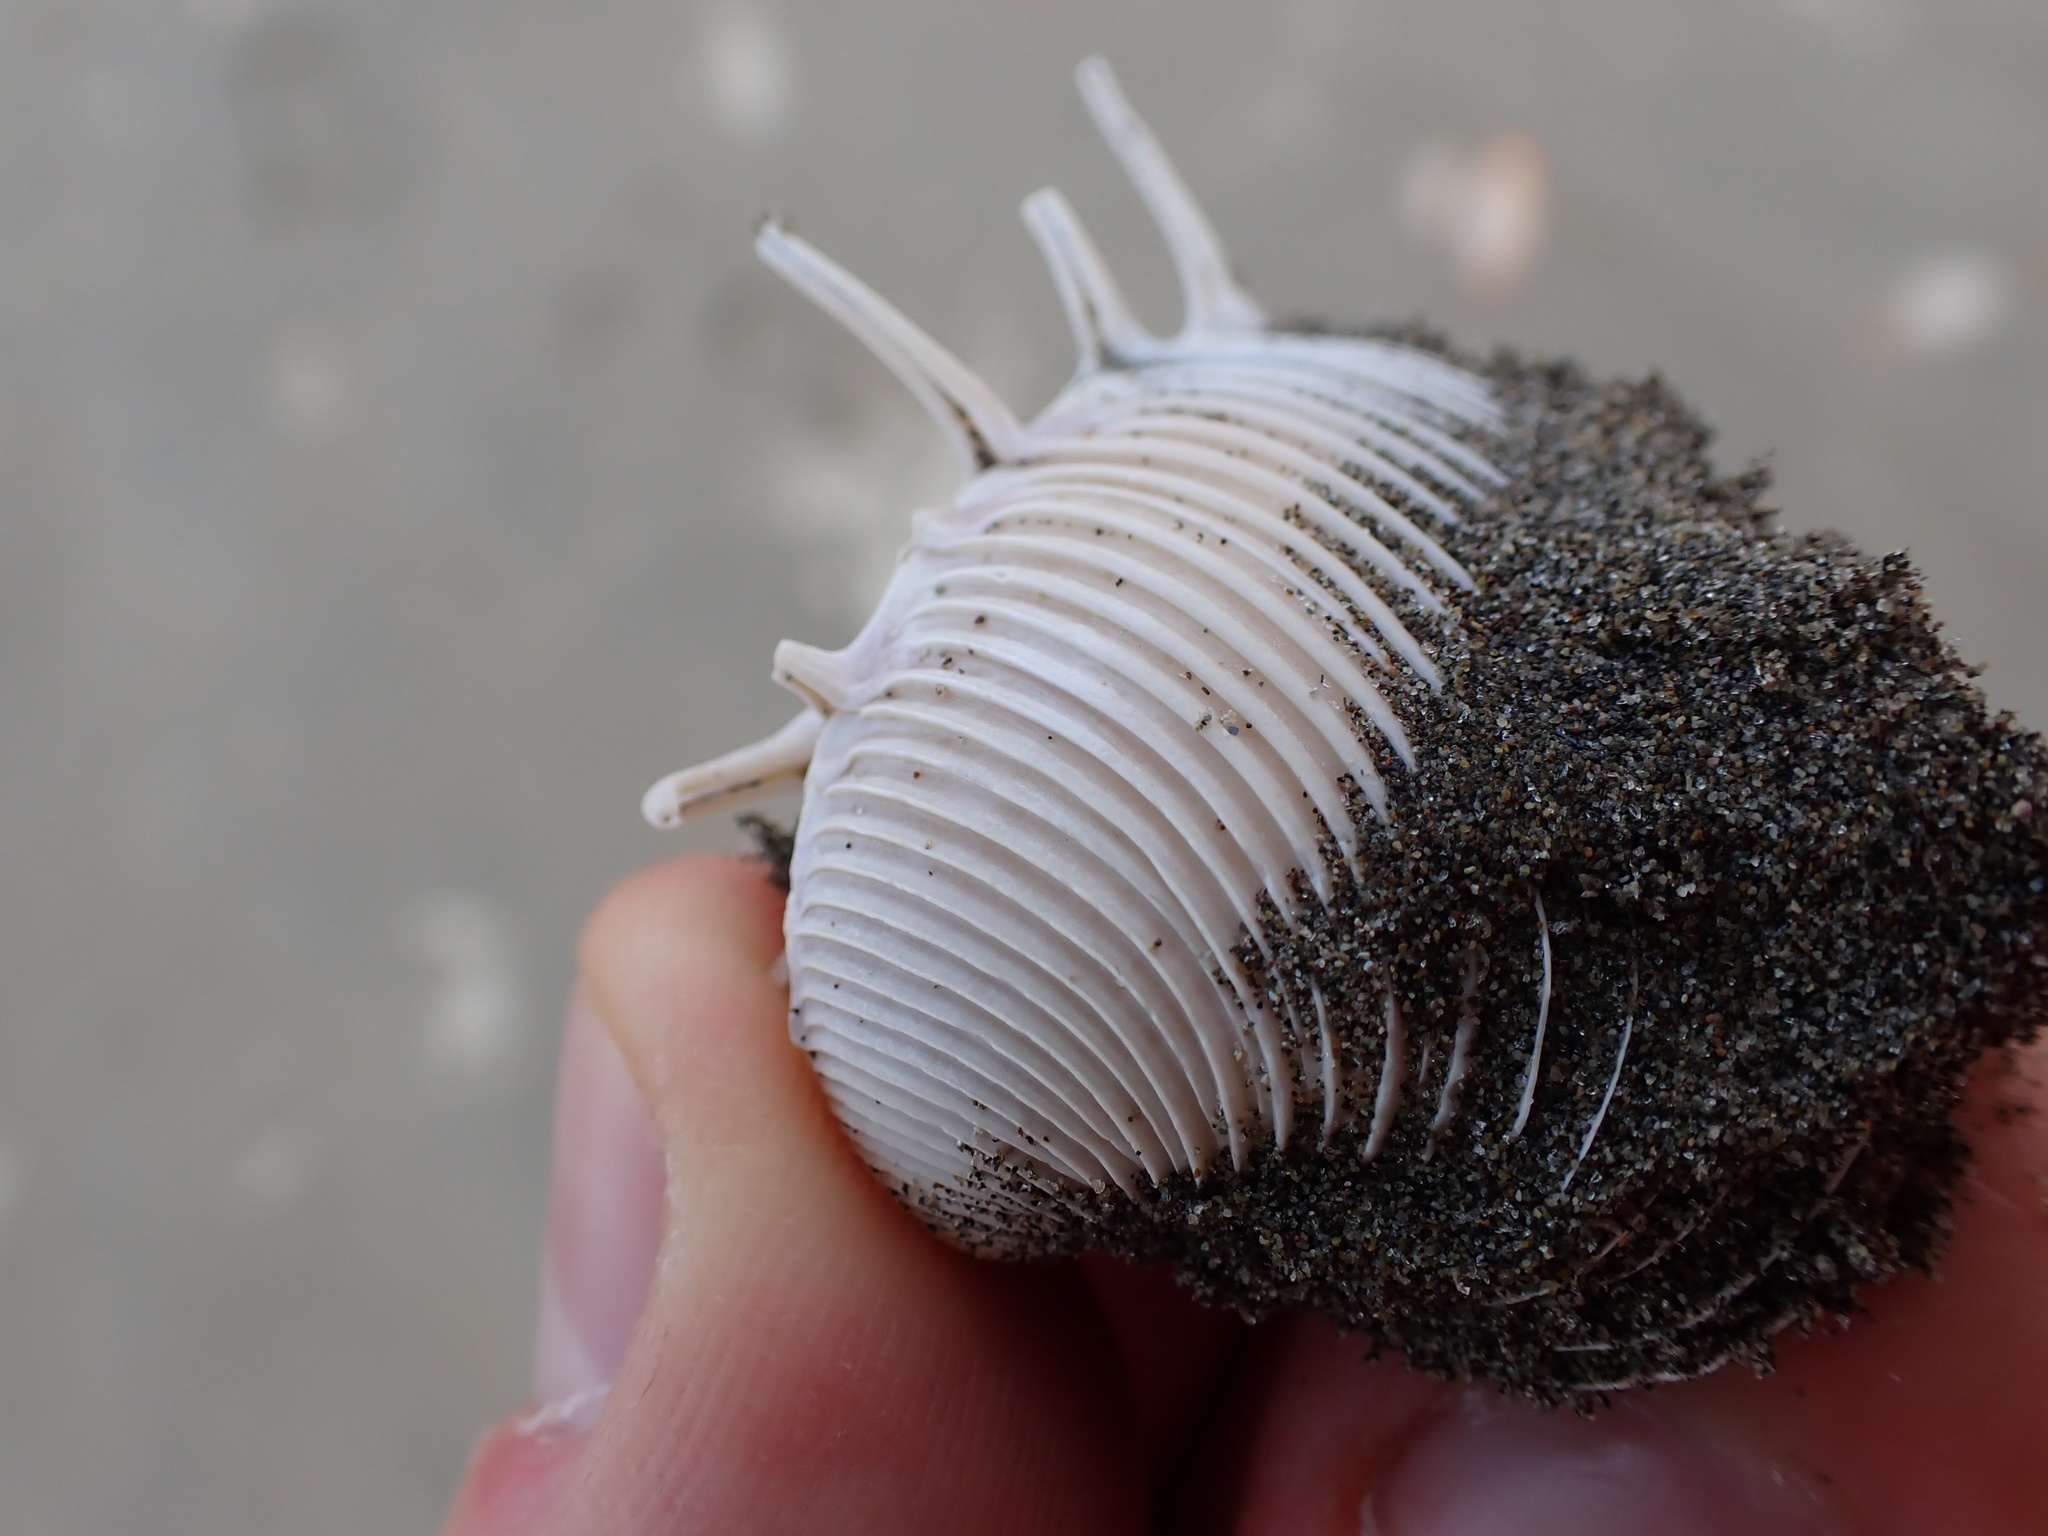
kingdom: Animalia
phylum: Mollusca
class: Bivalvia
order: Venerida
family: Veneridae
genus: Hysteroconcha
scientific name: Hysteroconcha lupanaria
